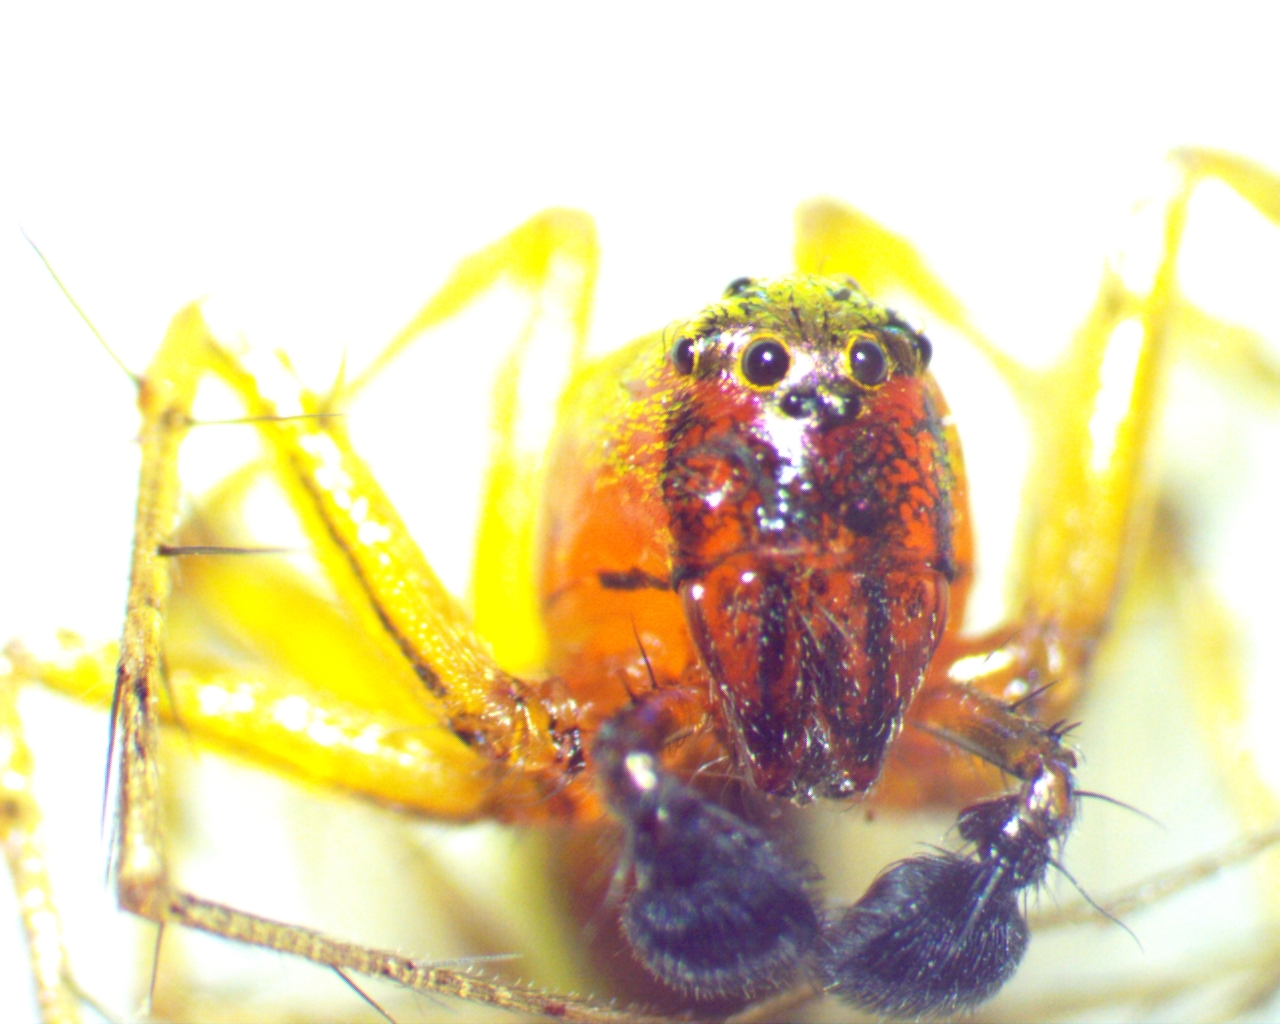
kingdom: Animalia
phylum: Arthropoda
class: Arachnida
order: Araneae
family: Oxyopidae
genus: Oxyopes
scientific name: Oxyopes salticus
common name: Lynx spiders
